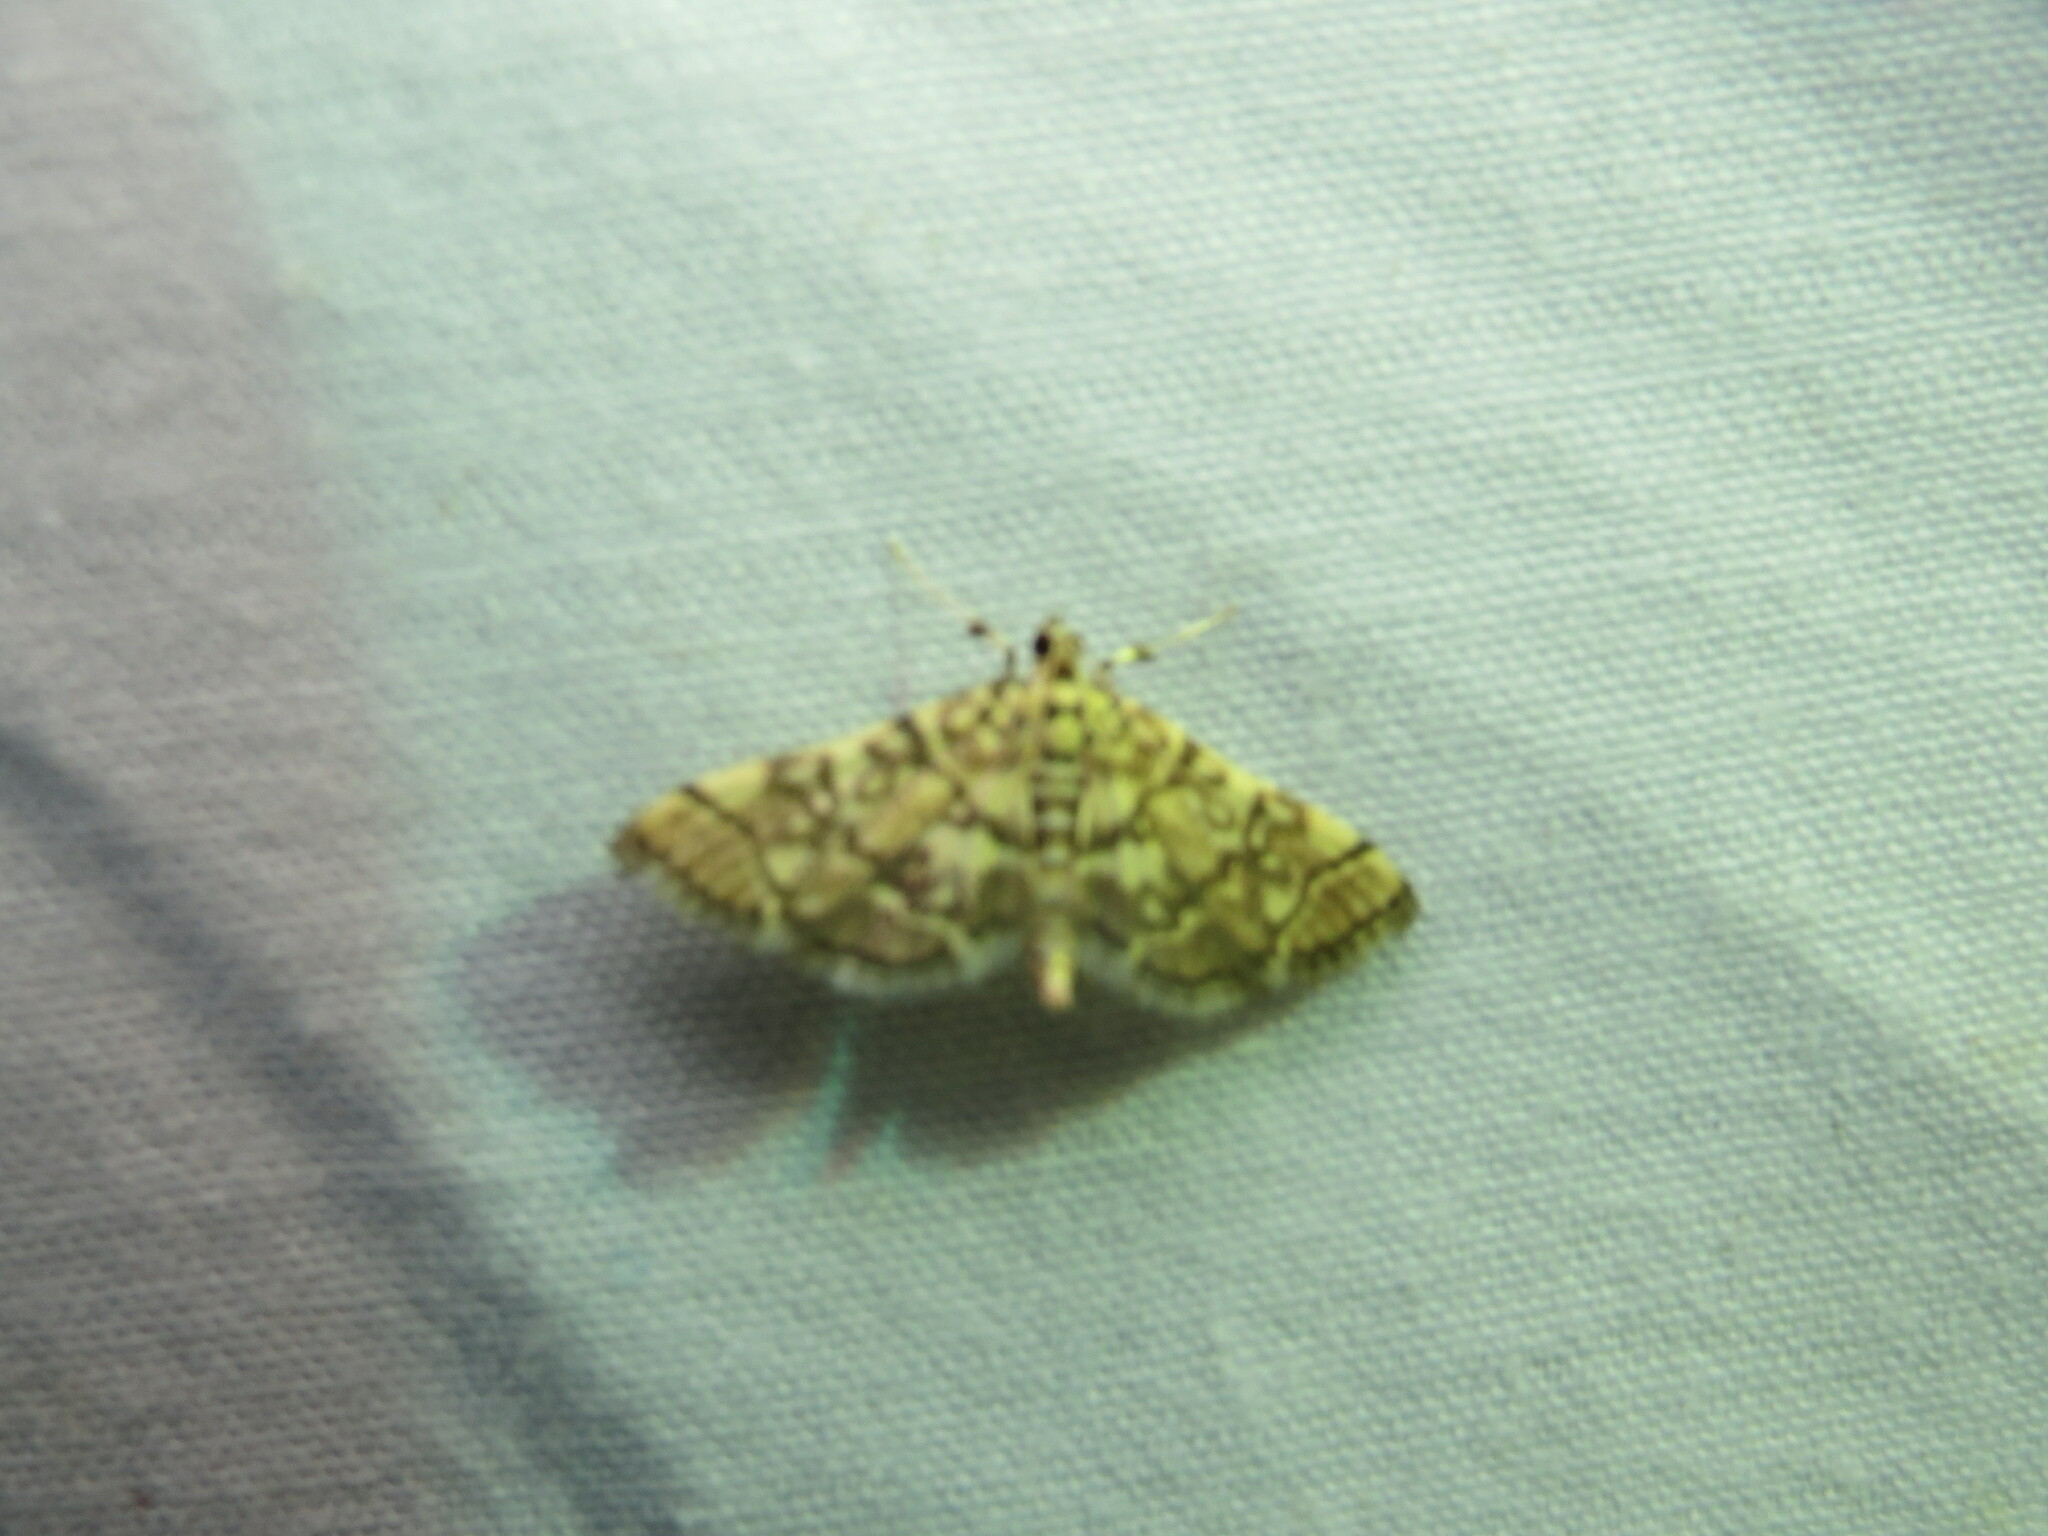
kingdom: Animalia
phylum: Arthropoda
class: Insecta
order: Lepidoptera
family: Crambidae
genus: Apogeshna
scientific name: Apogeshna stenialis
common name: Checkered apogeshna moth
